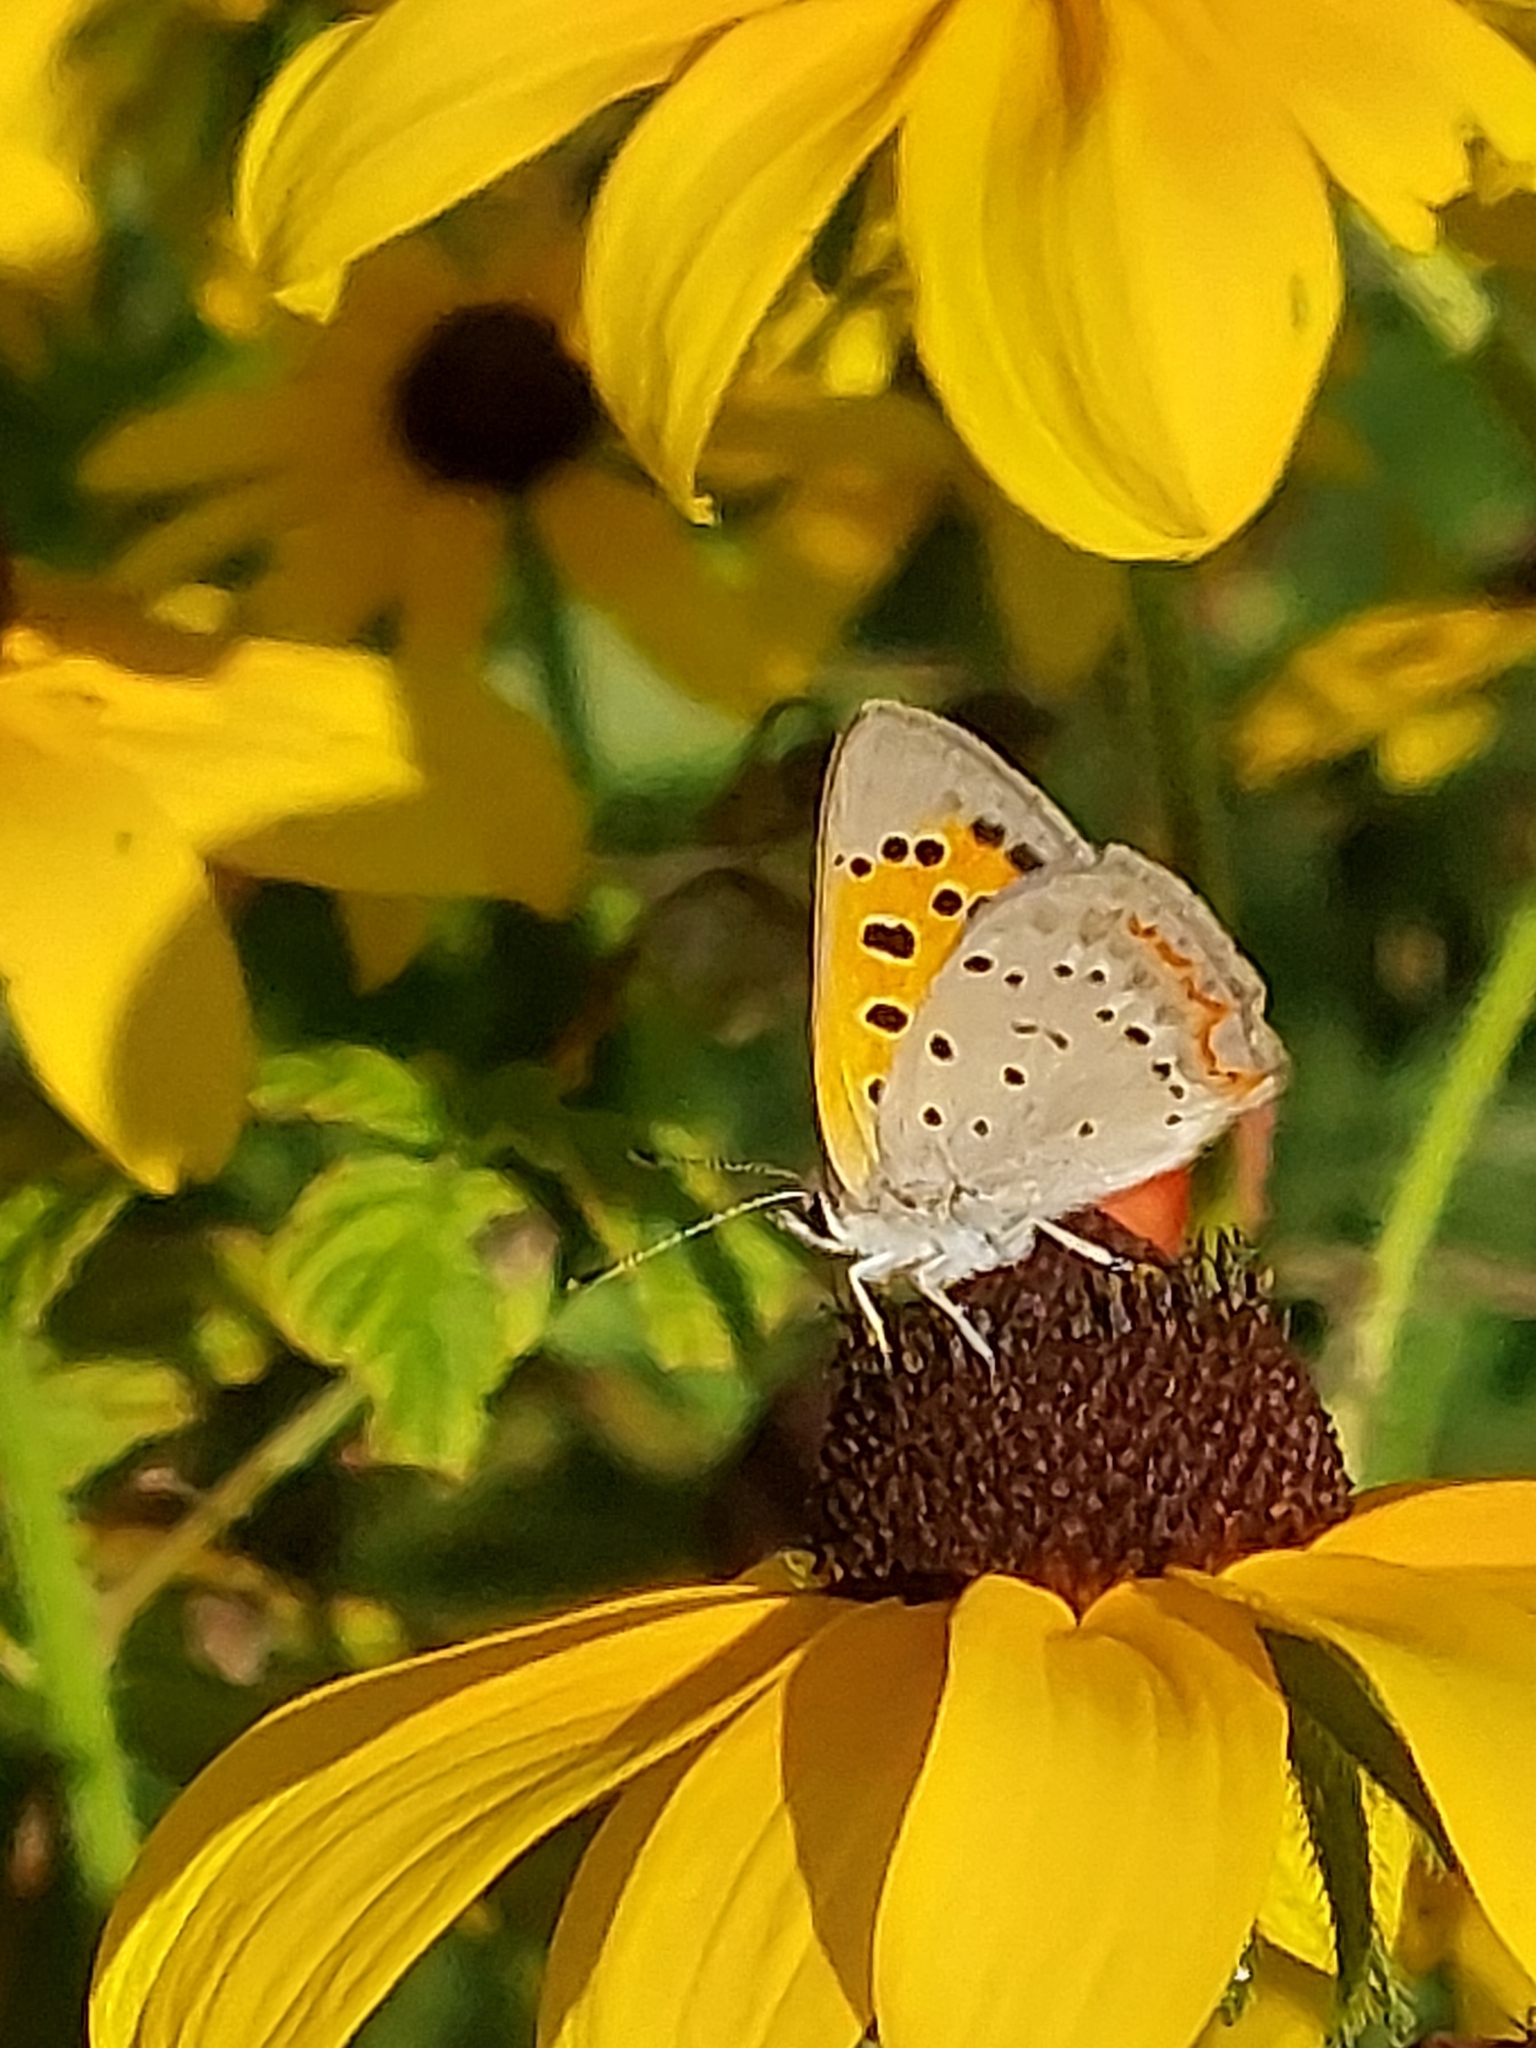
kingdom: Animalia
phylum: Arthropoda
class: Insecta
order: Lepidoptera
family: Lycaenidae
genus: Lycaena
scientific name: Lycaena hypophlaeas
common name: American copper
